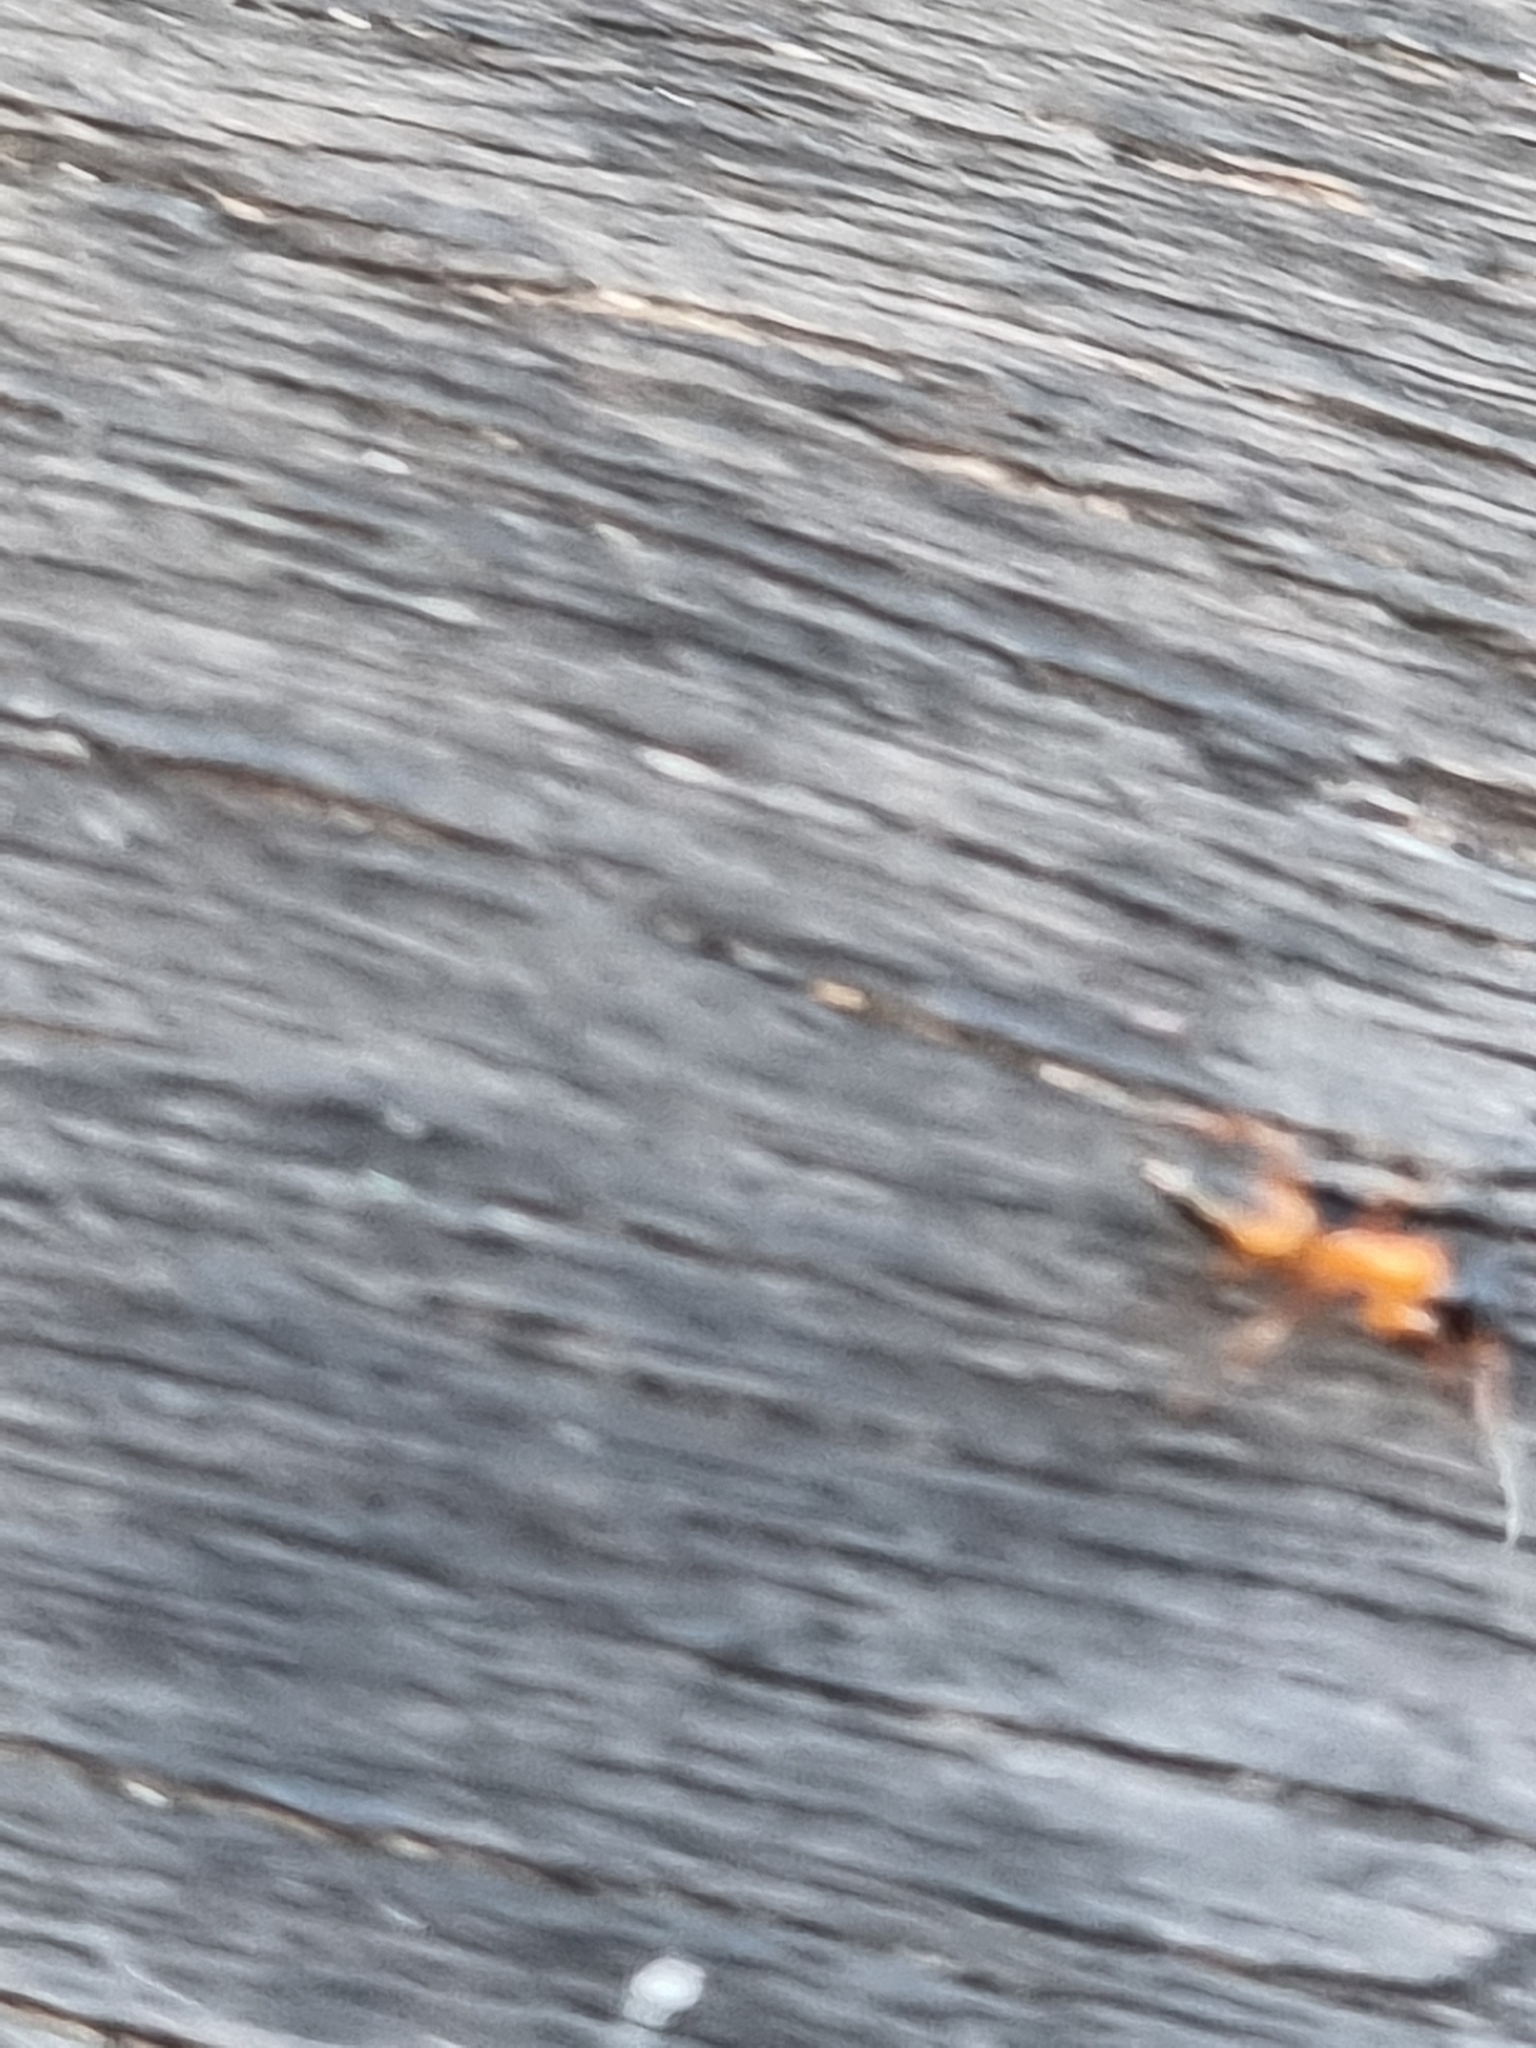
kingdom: Animalia
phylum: Arthropoda
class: Insecta
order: Hymenoptera
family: Formicidae
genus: Opisthopsis
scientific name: Opisthopsis rufithorax
